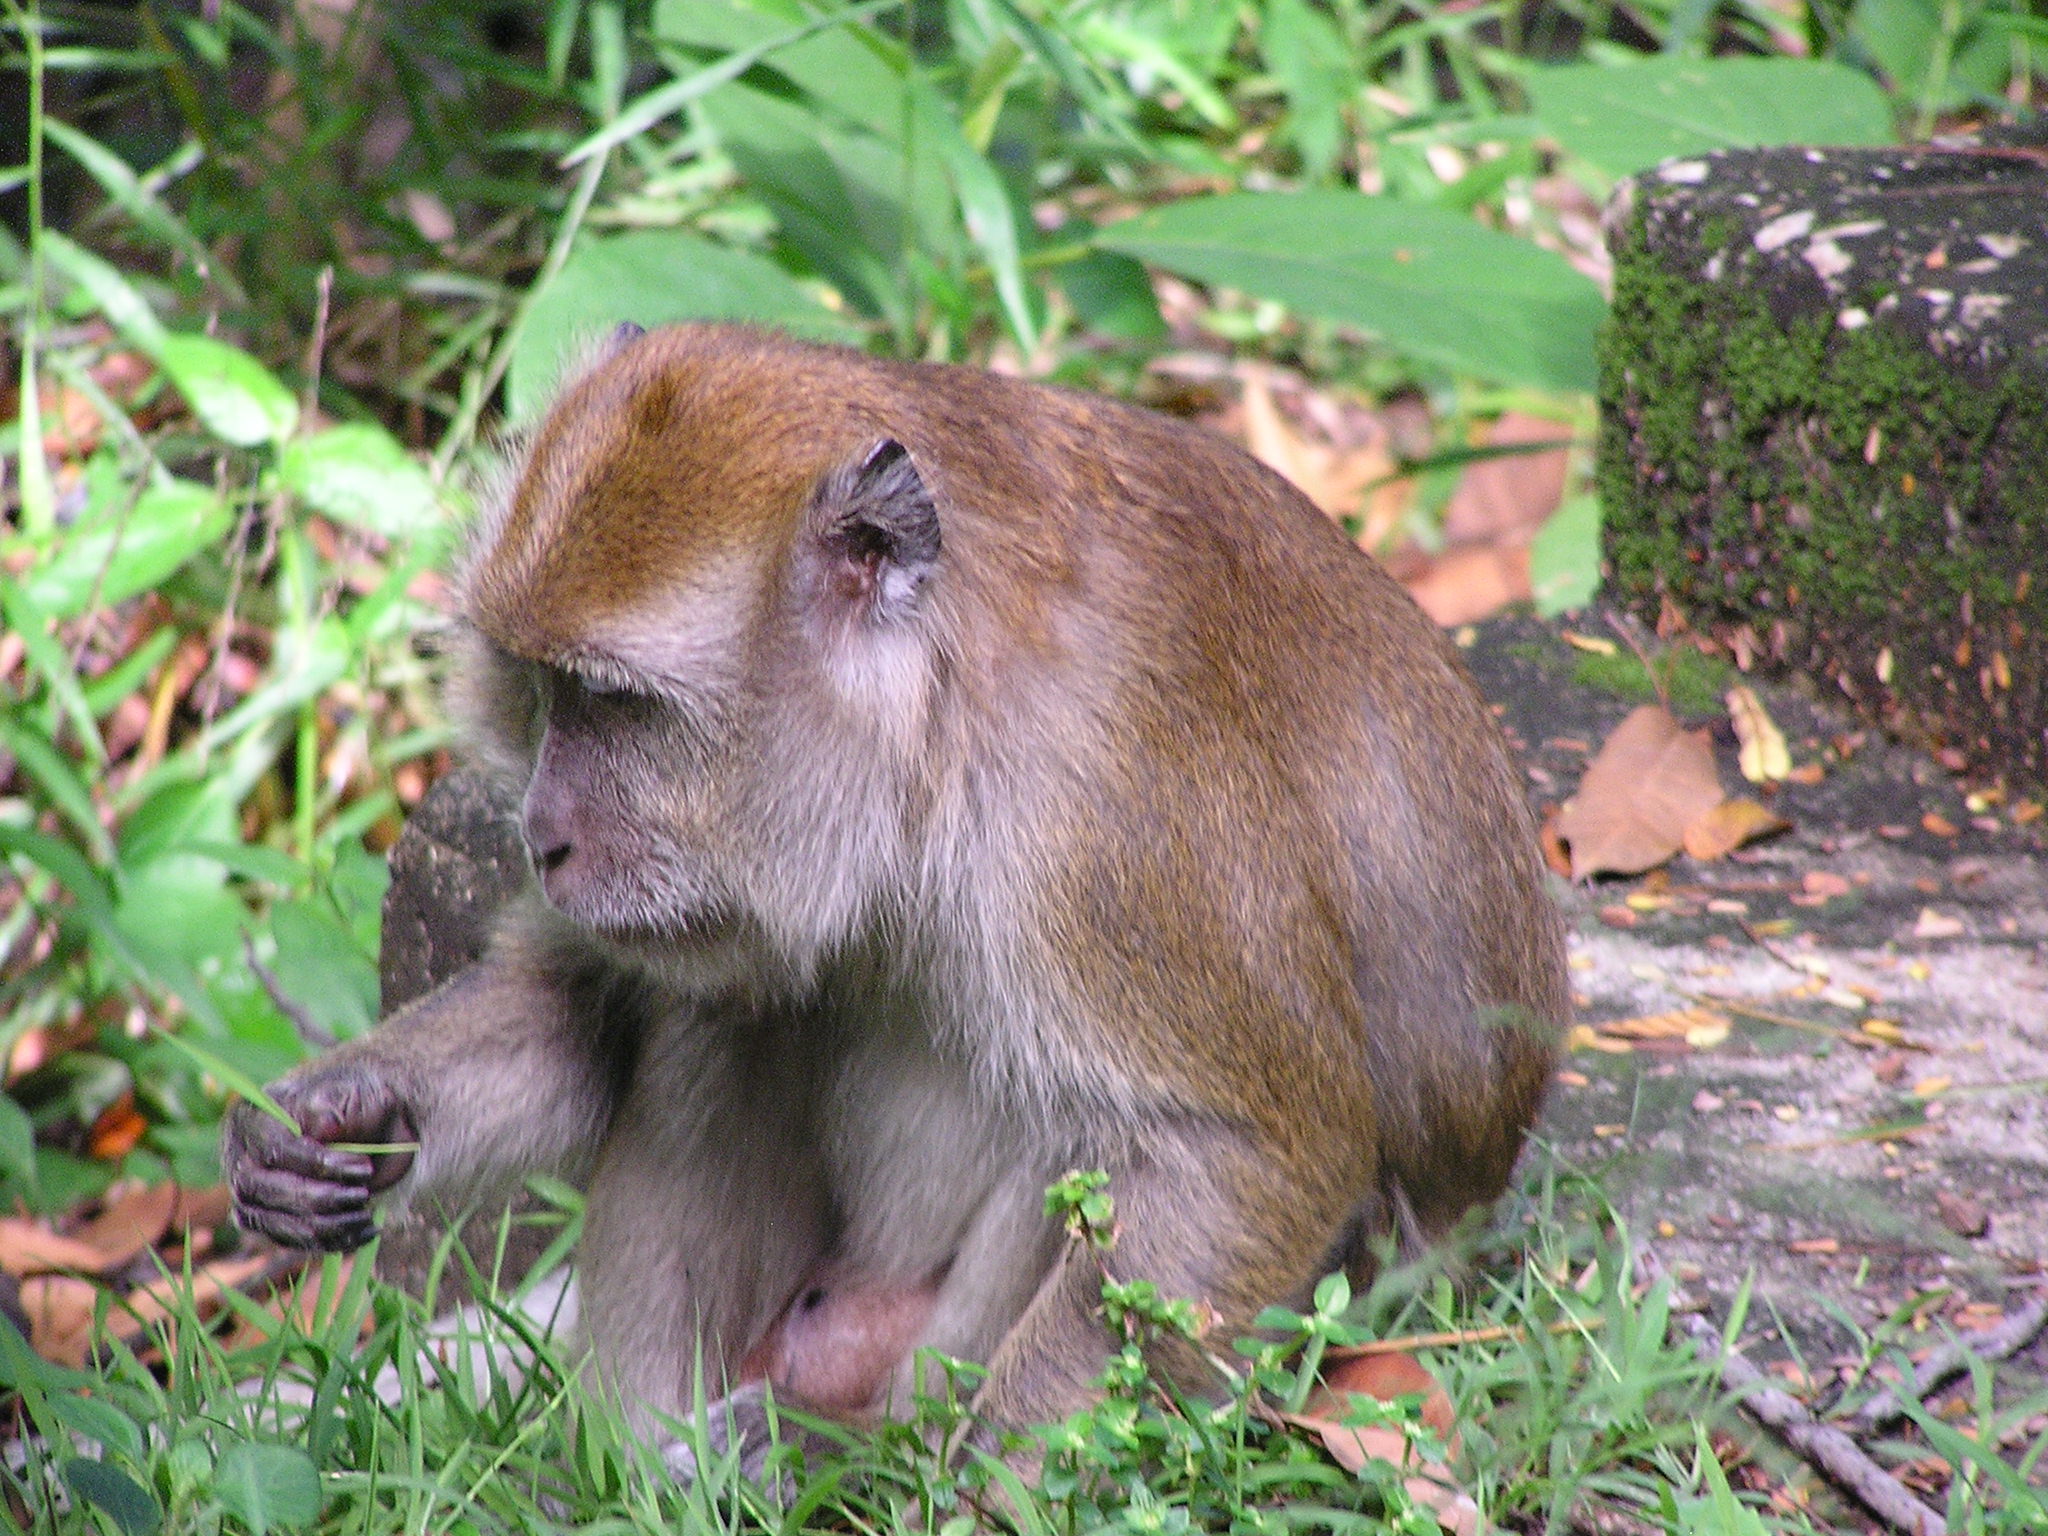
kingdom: Animalia
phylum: Chordata
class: Mammalia
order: Primates
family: Cercopithecidae
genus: Macaca
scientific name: Macaca fascicularis
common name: Crab-eating macaque
